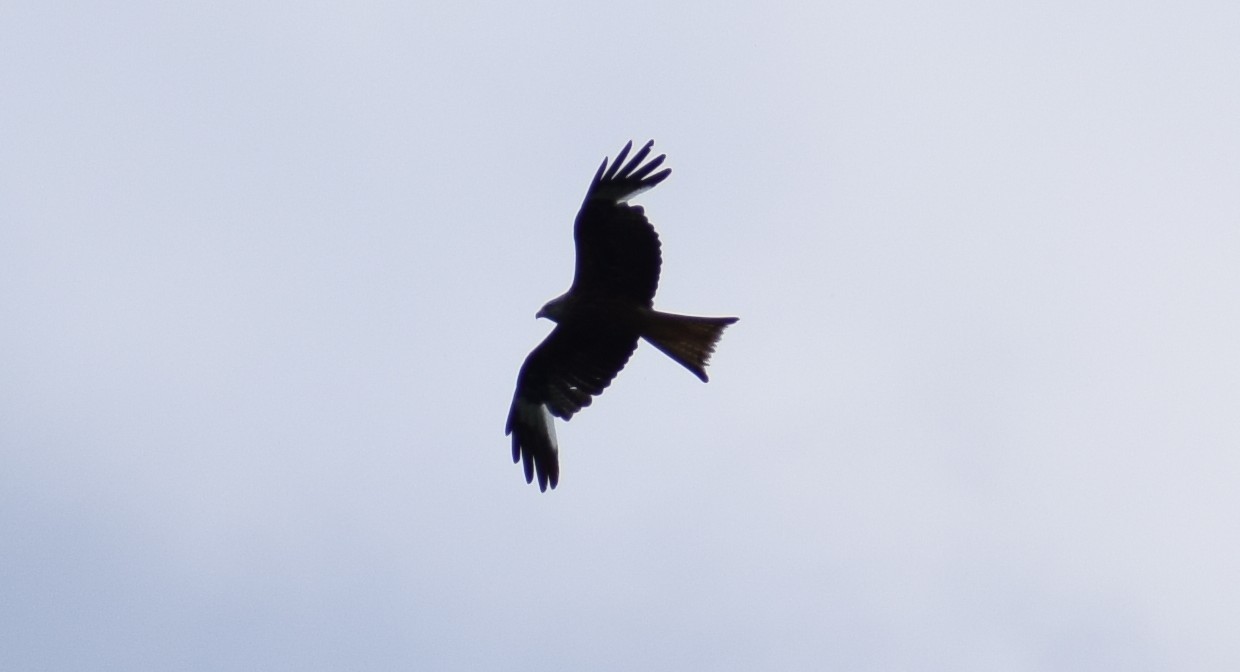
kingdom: Animalia
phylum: Chordata
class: Aves
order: Accipitriformes
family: Accipitridae
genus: Milvus
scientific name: Milvus milvus
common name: Red kite
